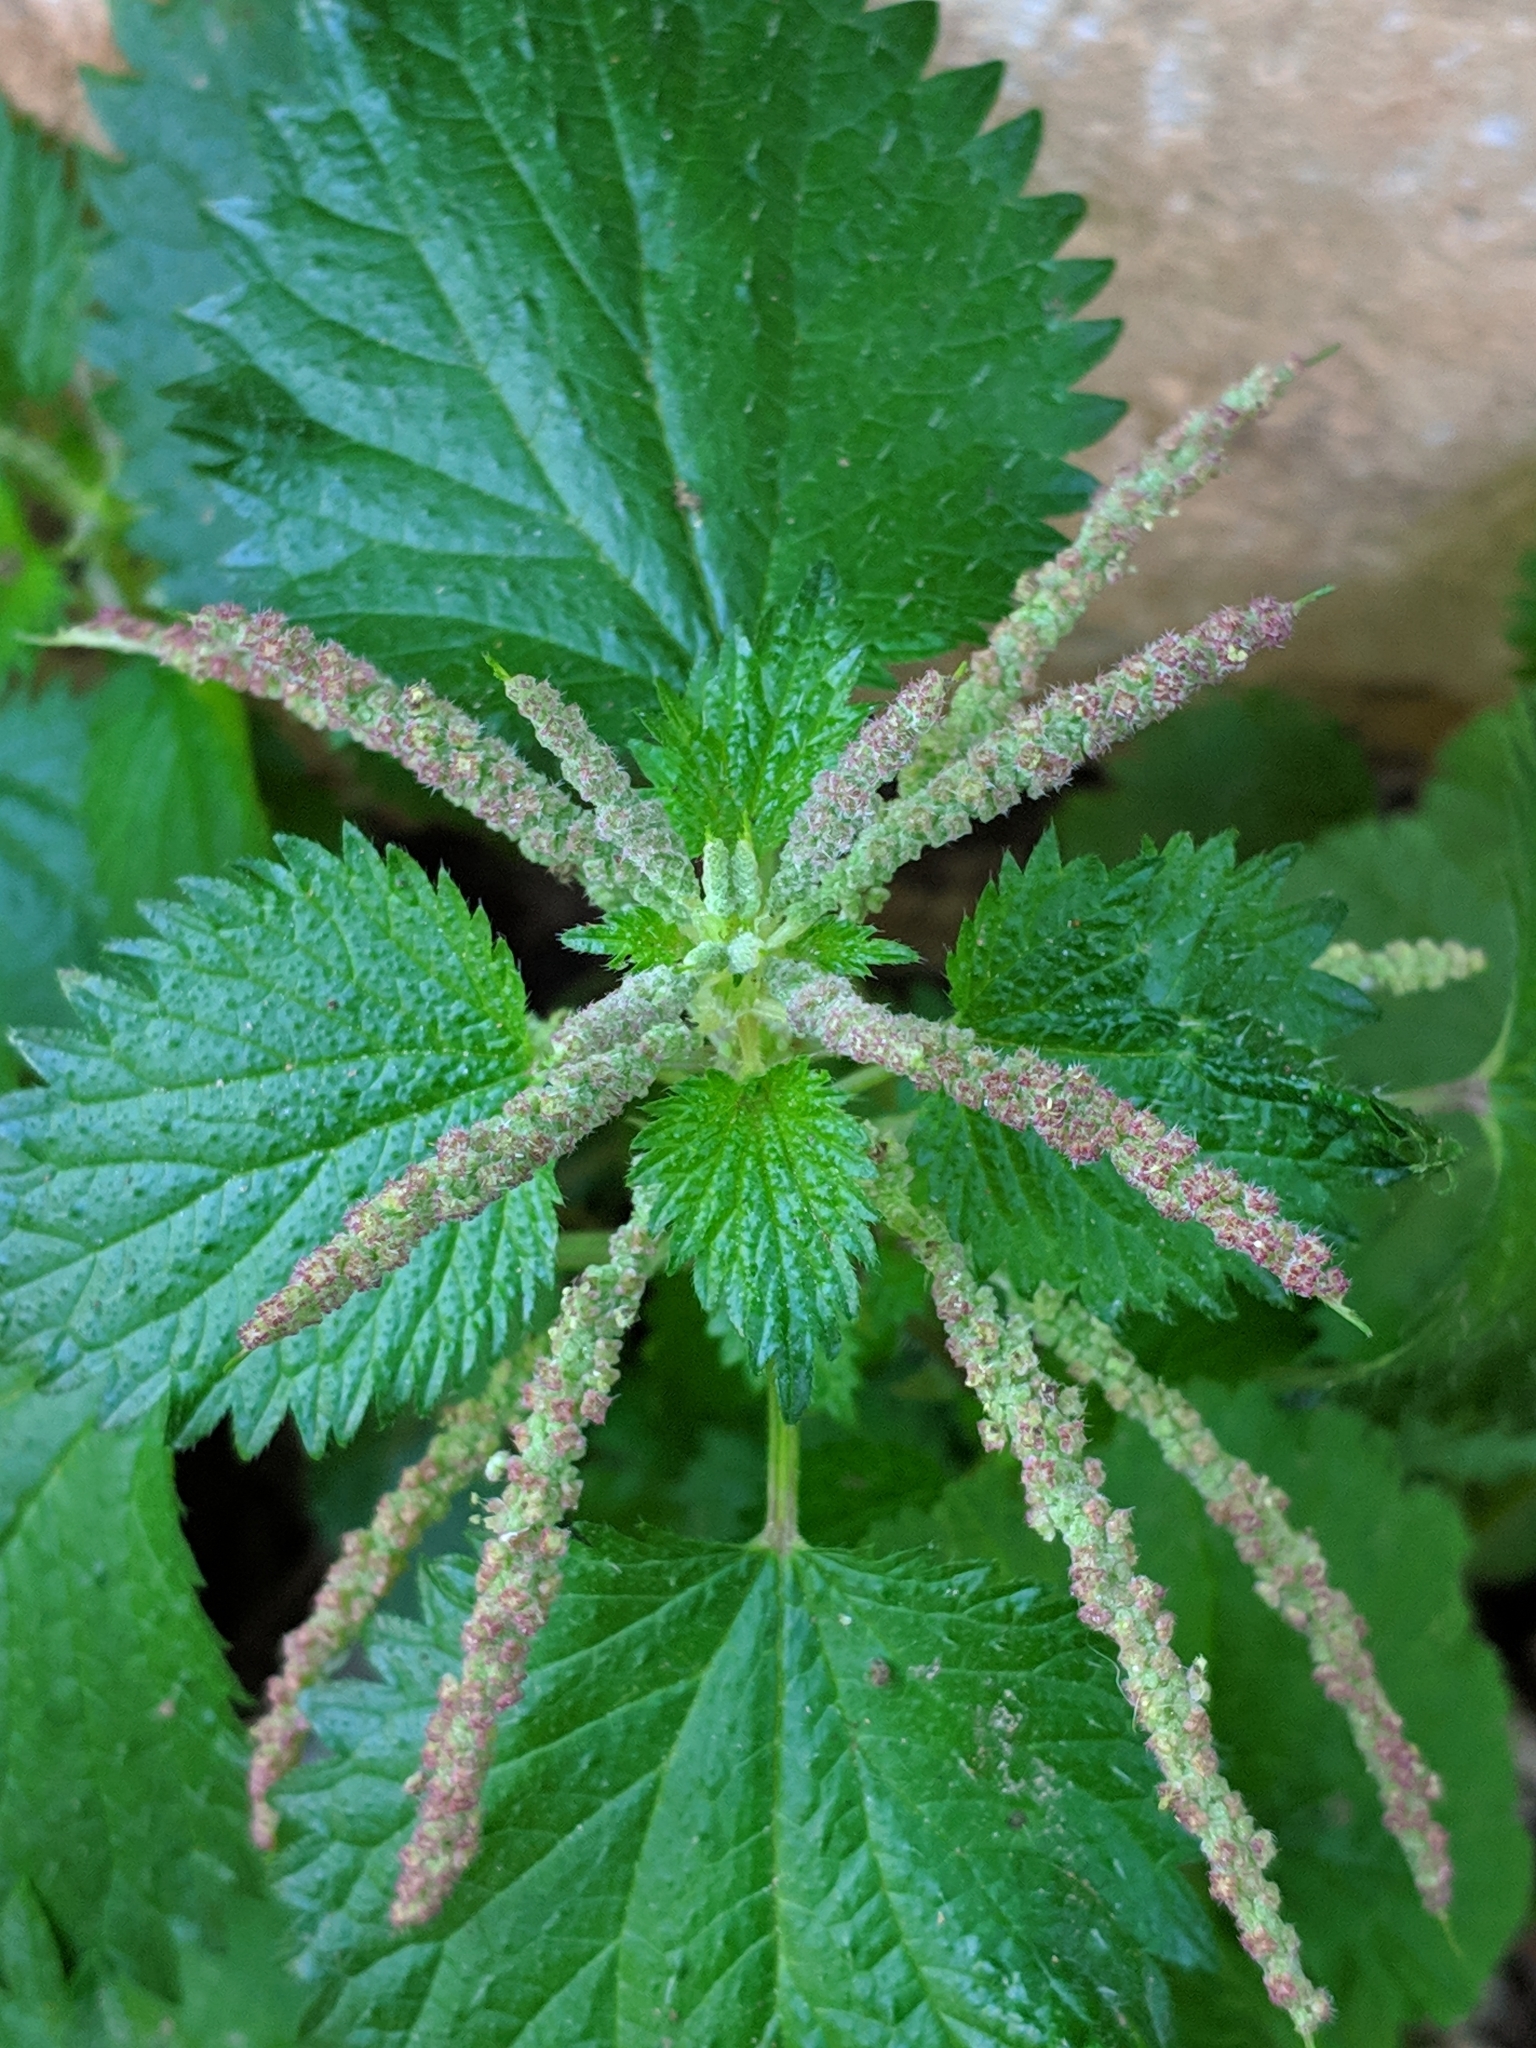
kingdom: Plantae
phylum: Tracheophyta
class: Magnoliopsida
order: Rosales
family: Urticaceae
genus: Urtica
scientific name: Urtica membranacea
